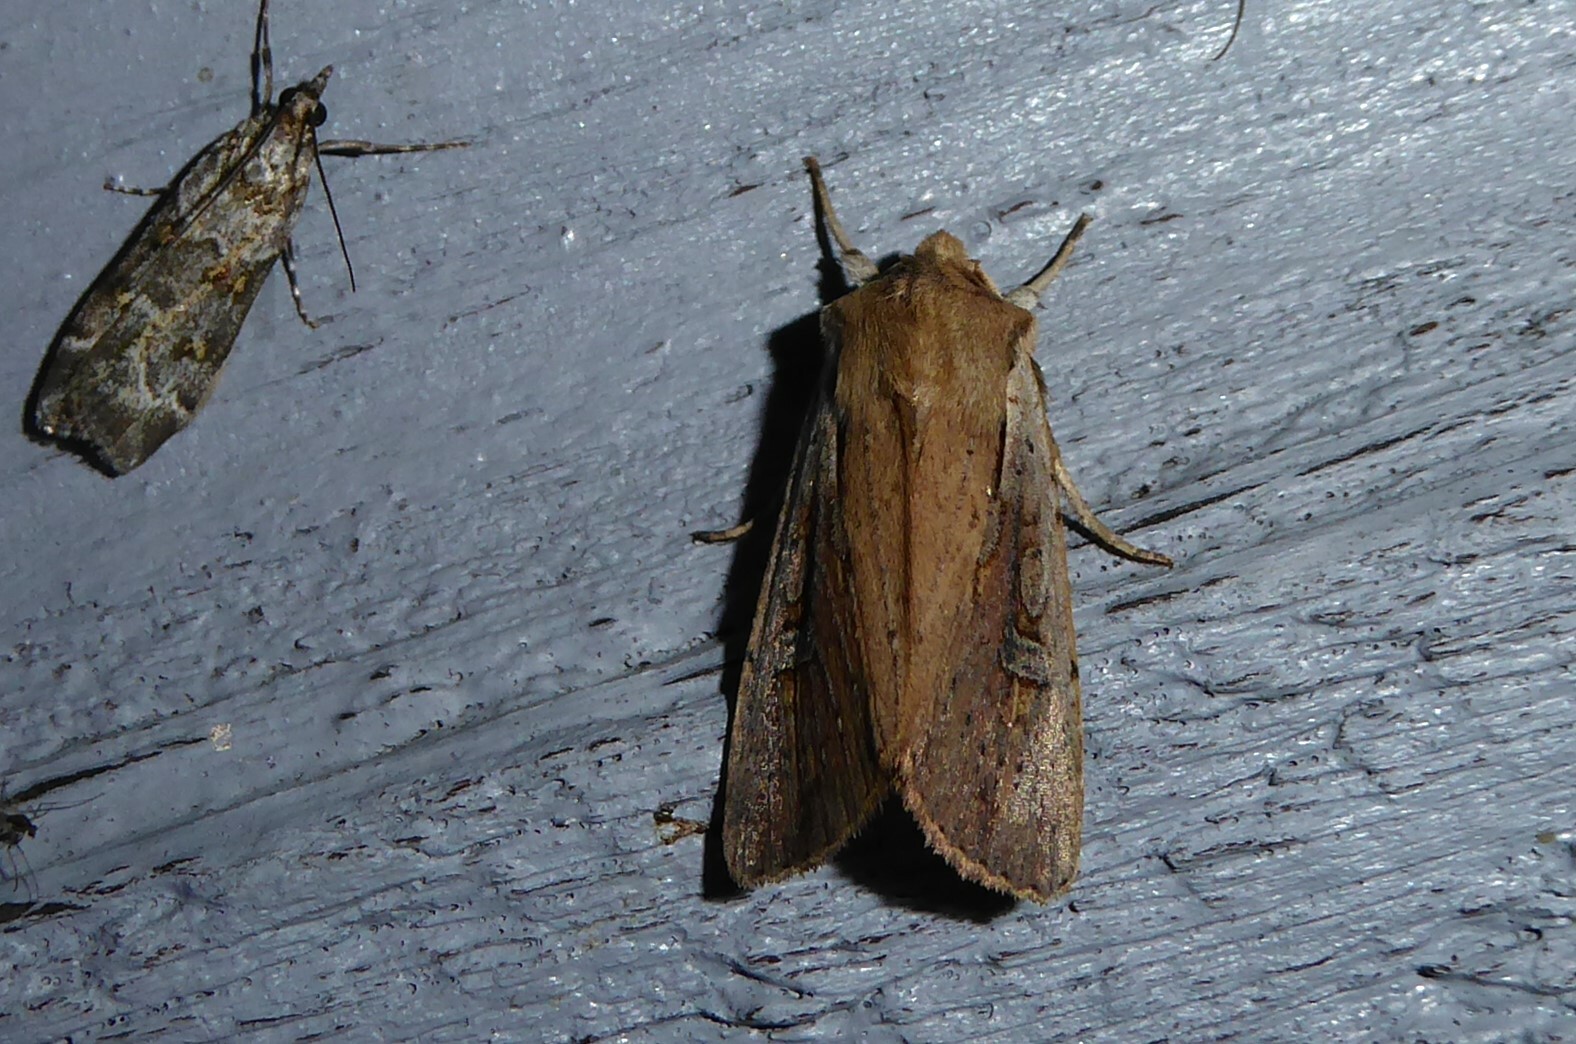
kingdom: Animalia
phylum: Arthropoda
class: Insecta
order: Lepidoptera
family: Noctuidae
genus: Ichneutica
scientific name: Ichneutica atristriga
